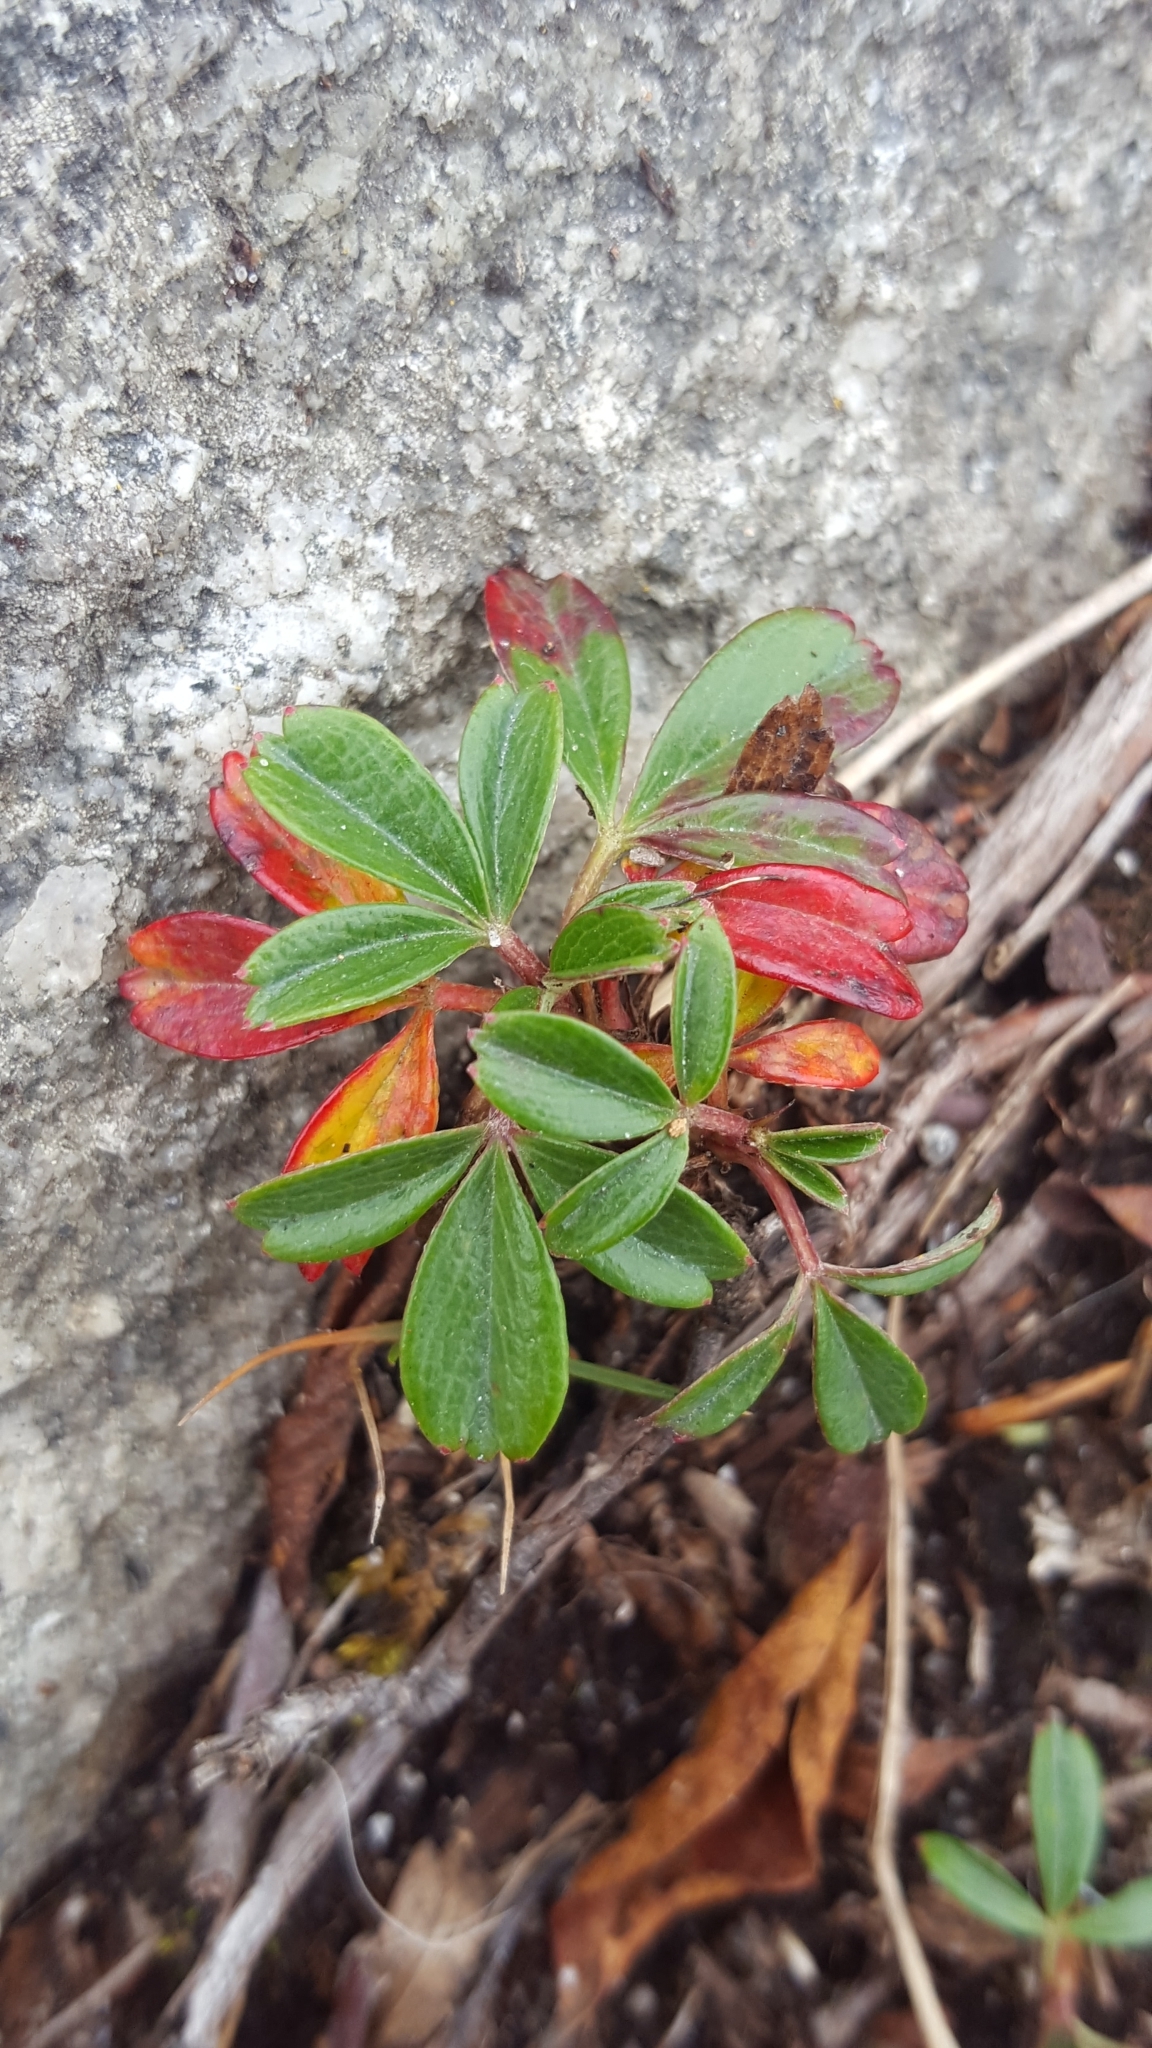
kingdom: Plantae
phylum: Tracheophyta
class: Magnoliopsida
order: Rosales
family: Rosaceae
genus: Sibbaldia
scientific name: Sibbaldia tridentata
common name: Three-toothed cinquefoil
